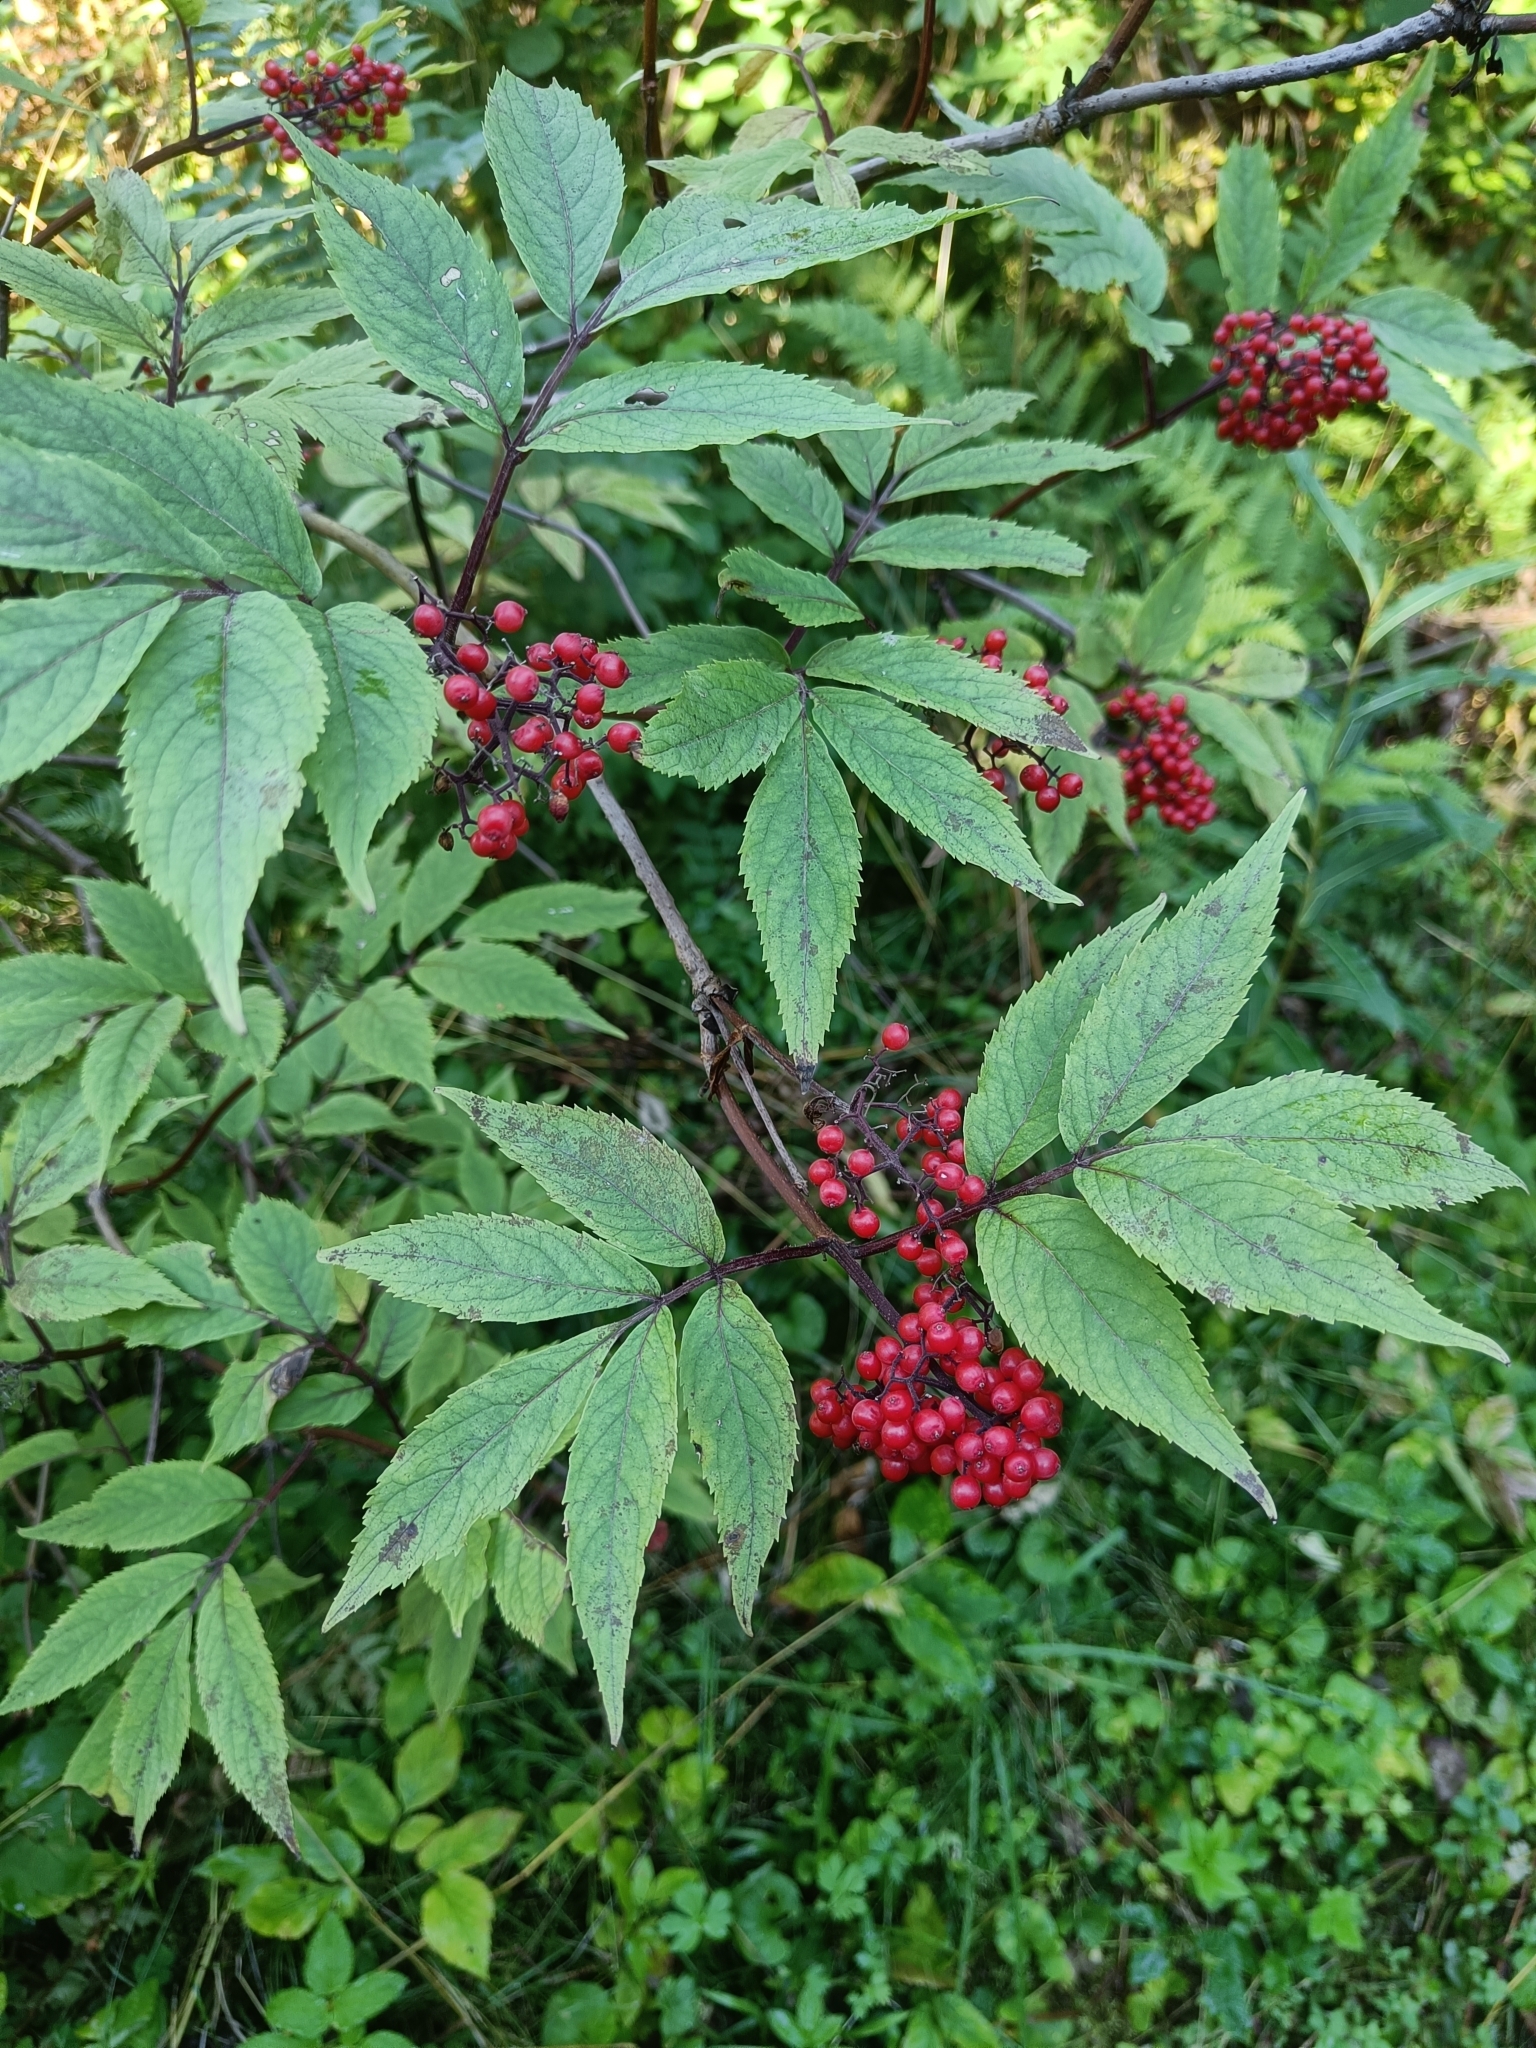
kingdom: Plantae
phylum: Tracheophyta
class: Magnoliopsida
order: Dipsacales
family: Viburnaceae
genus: Sambucus
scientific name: Sambucus racemosa
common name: Red-berried elder
